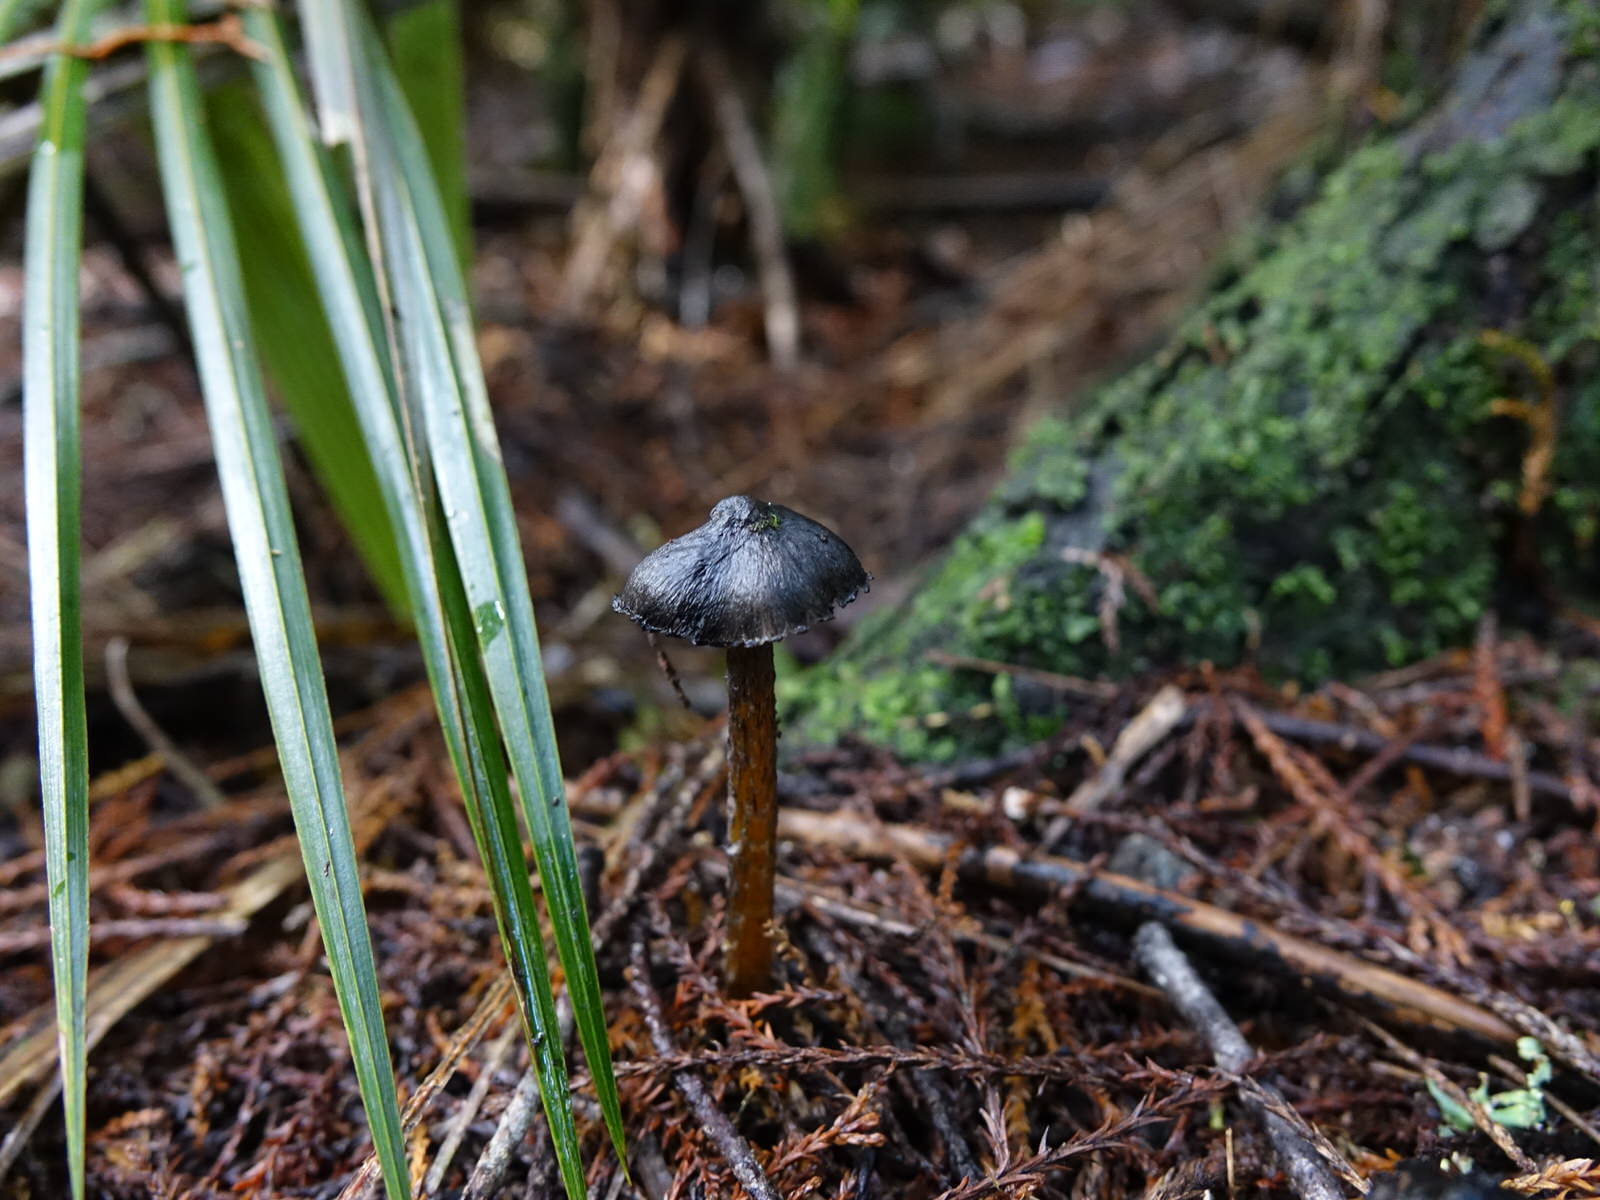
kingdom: Fungi
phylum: Basidiomycota
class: Agaricomycetes
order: Agaricales
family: Hygrophoraceae
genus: Hygrocybe
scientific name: Hygrocybe astatogala
